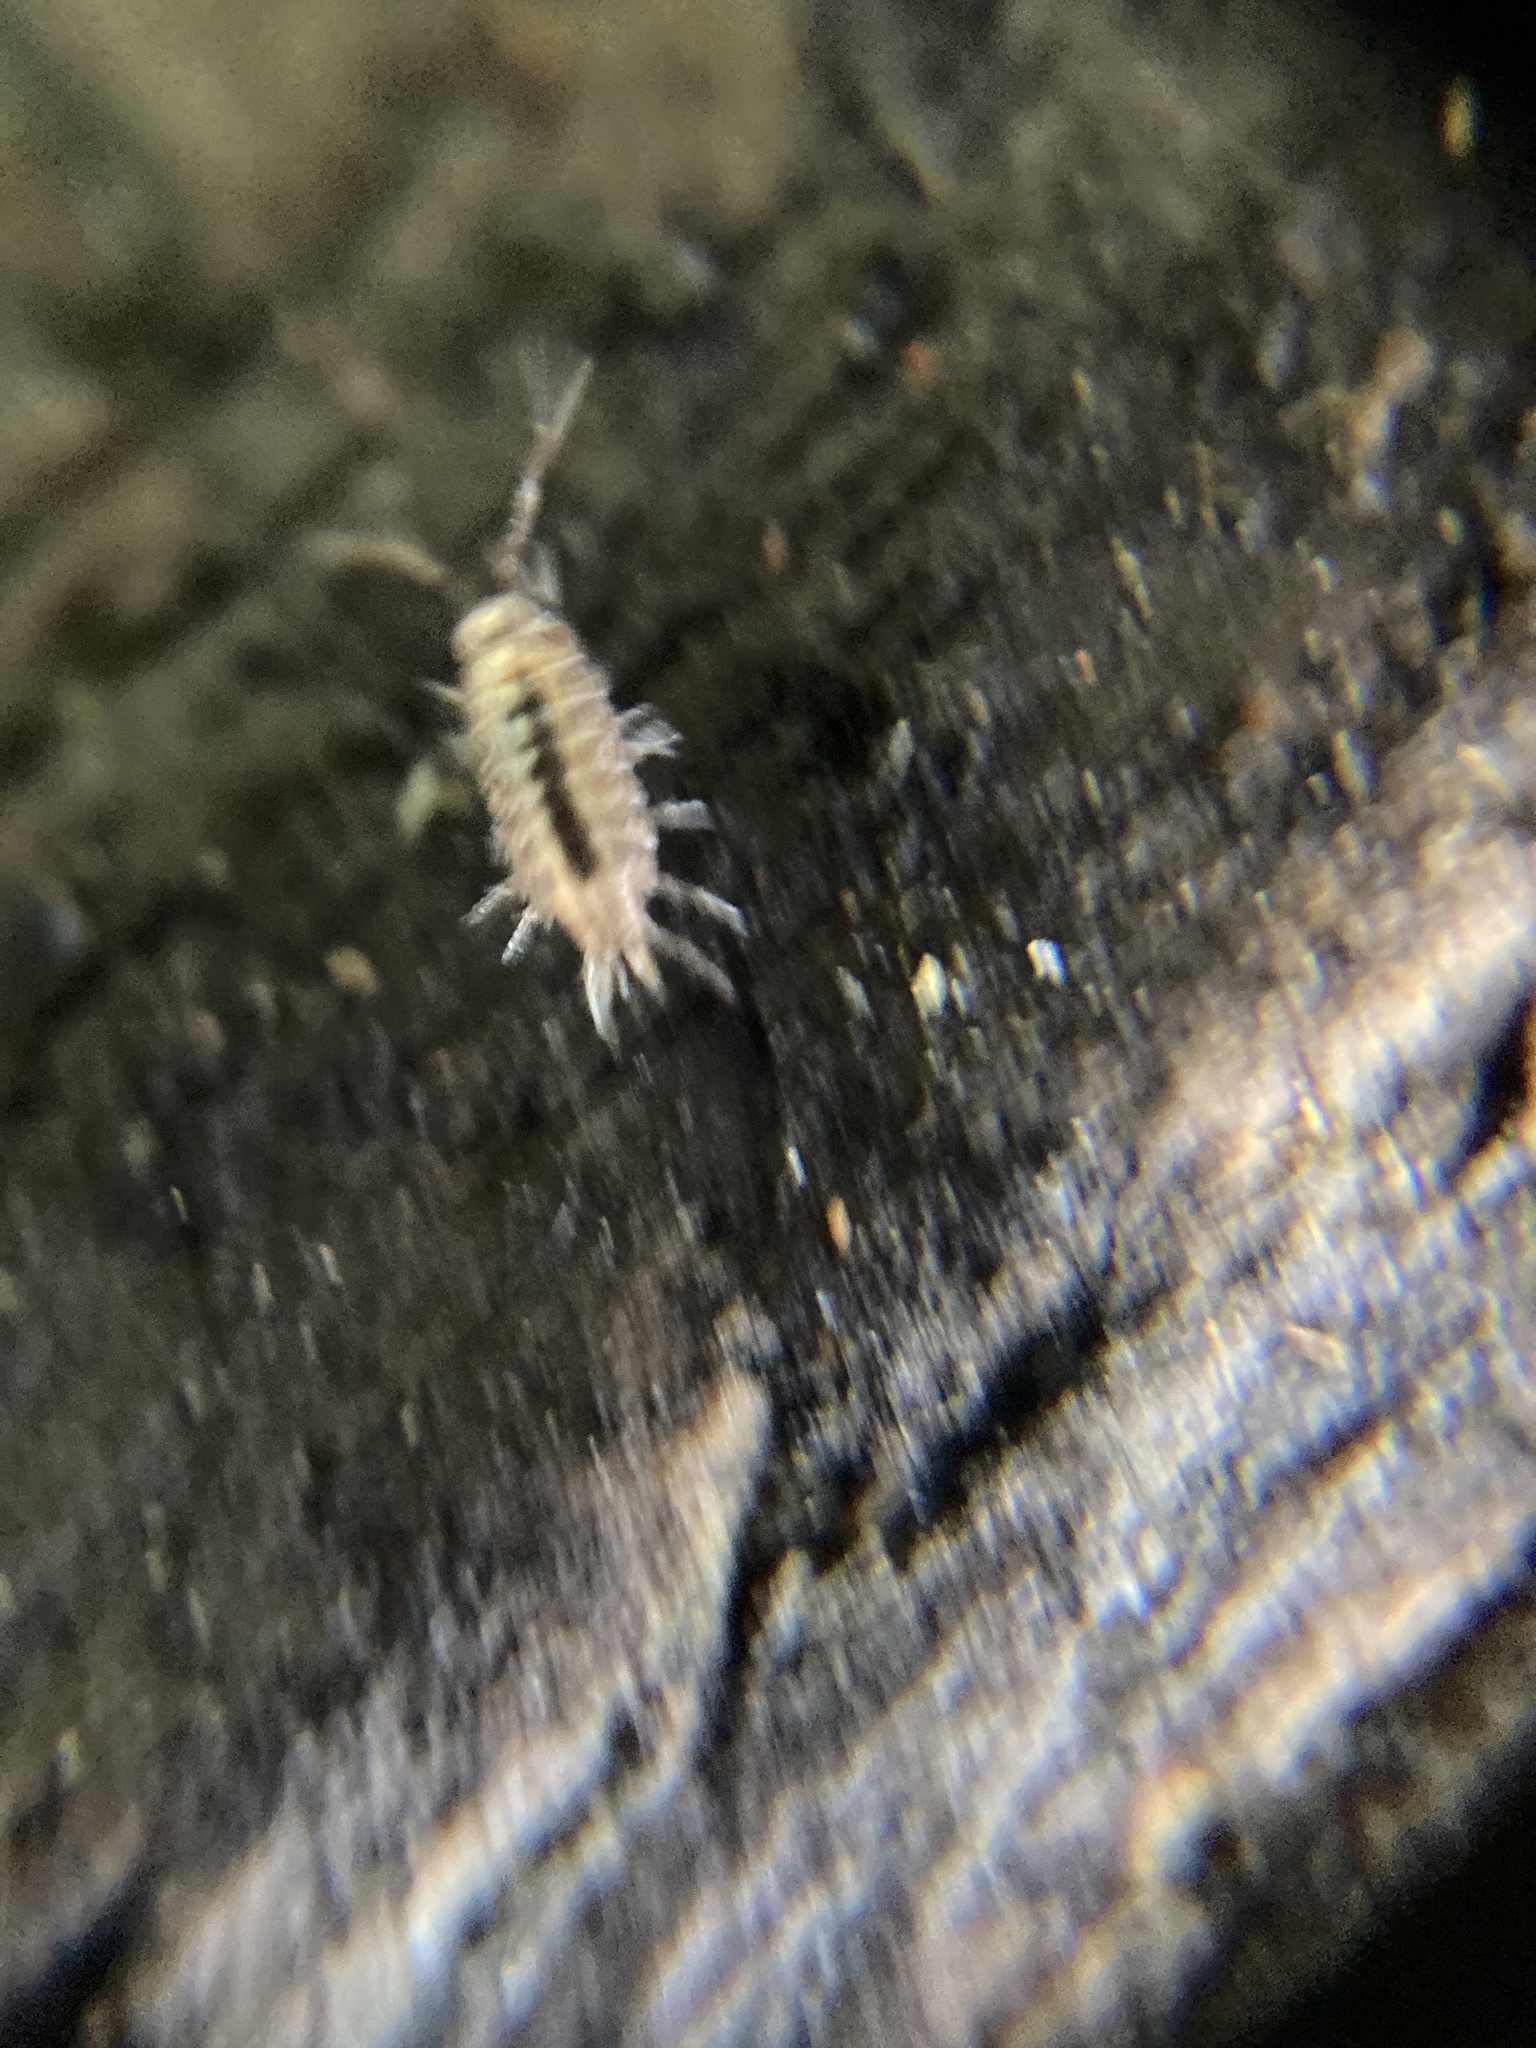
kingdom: Animalia
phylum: Arthropoda
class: Malacostraca
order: Isopoda
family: Philosciidae
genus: Atlantoscia
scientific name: Atlantoscia floridana
